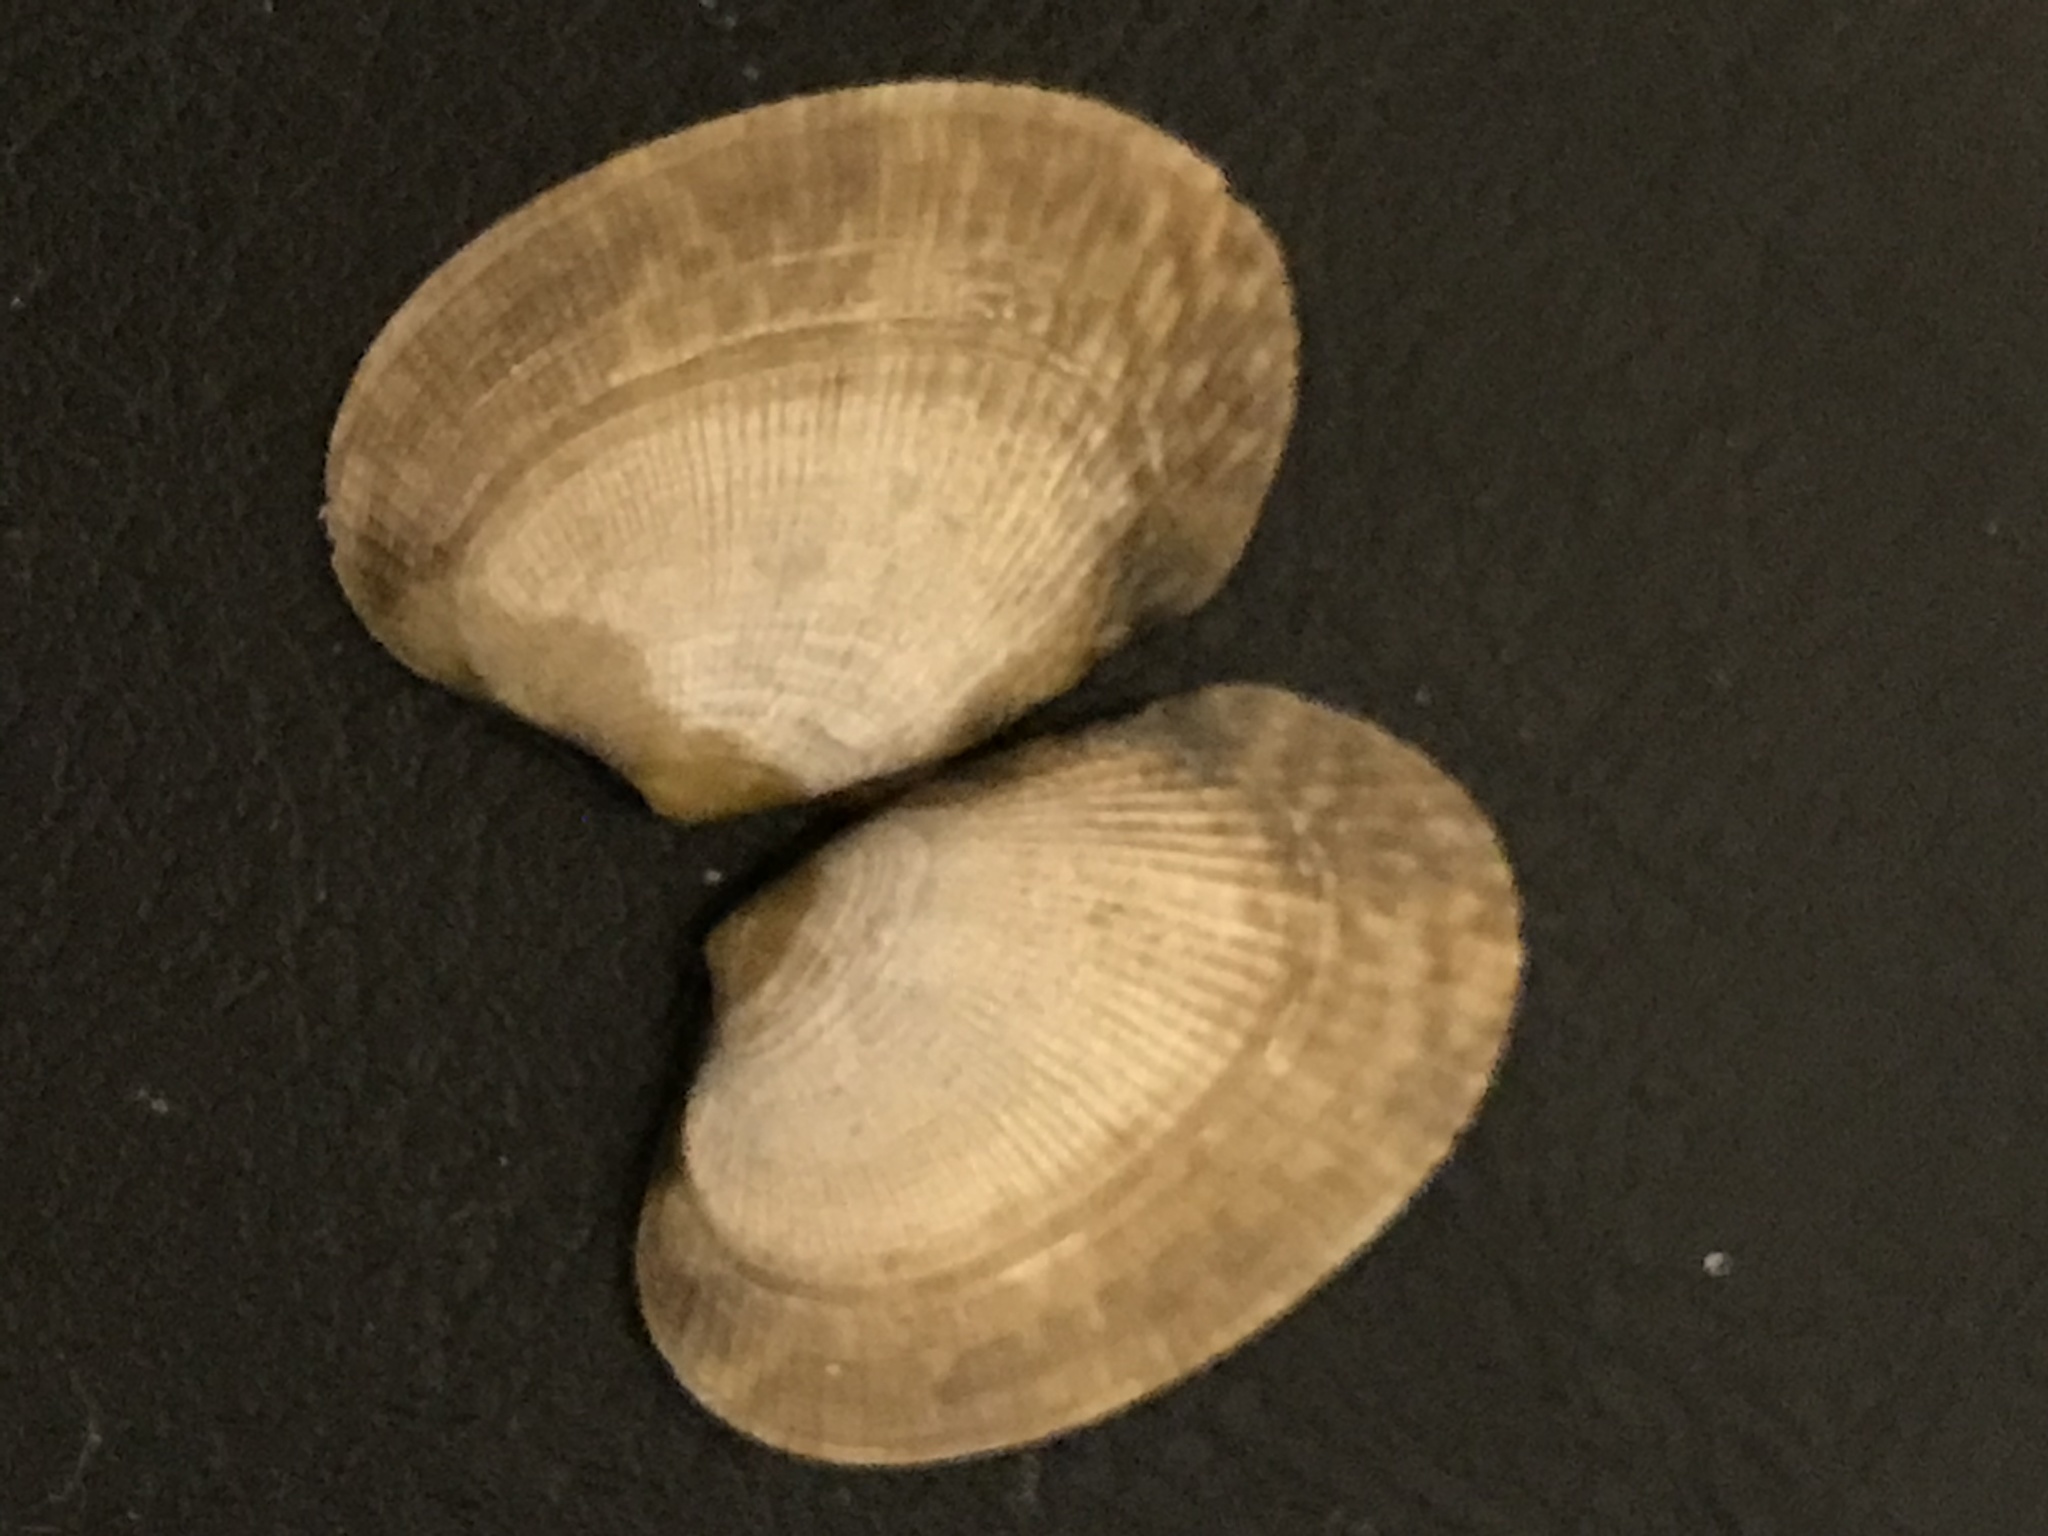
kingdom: Animalia
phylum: Mollusca
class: Bivalvia
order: Venerida
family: Veneridae
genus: Ruditapes
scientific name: Ruditapes philippinarum
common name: Manila clam
